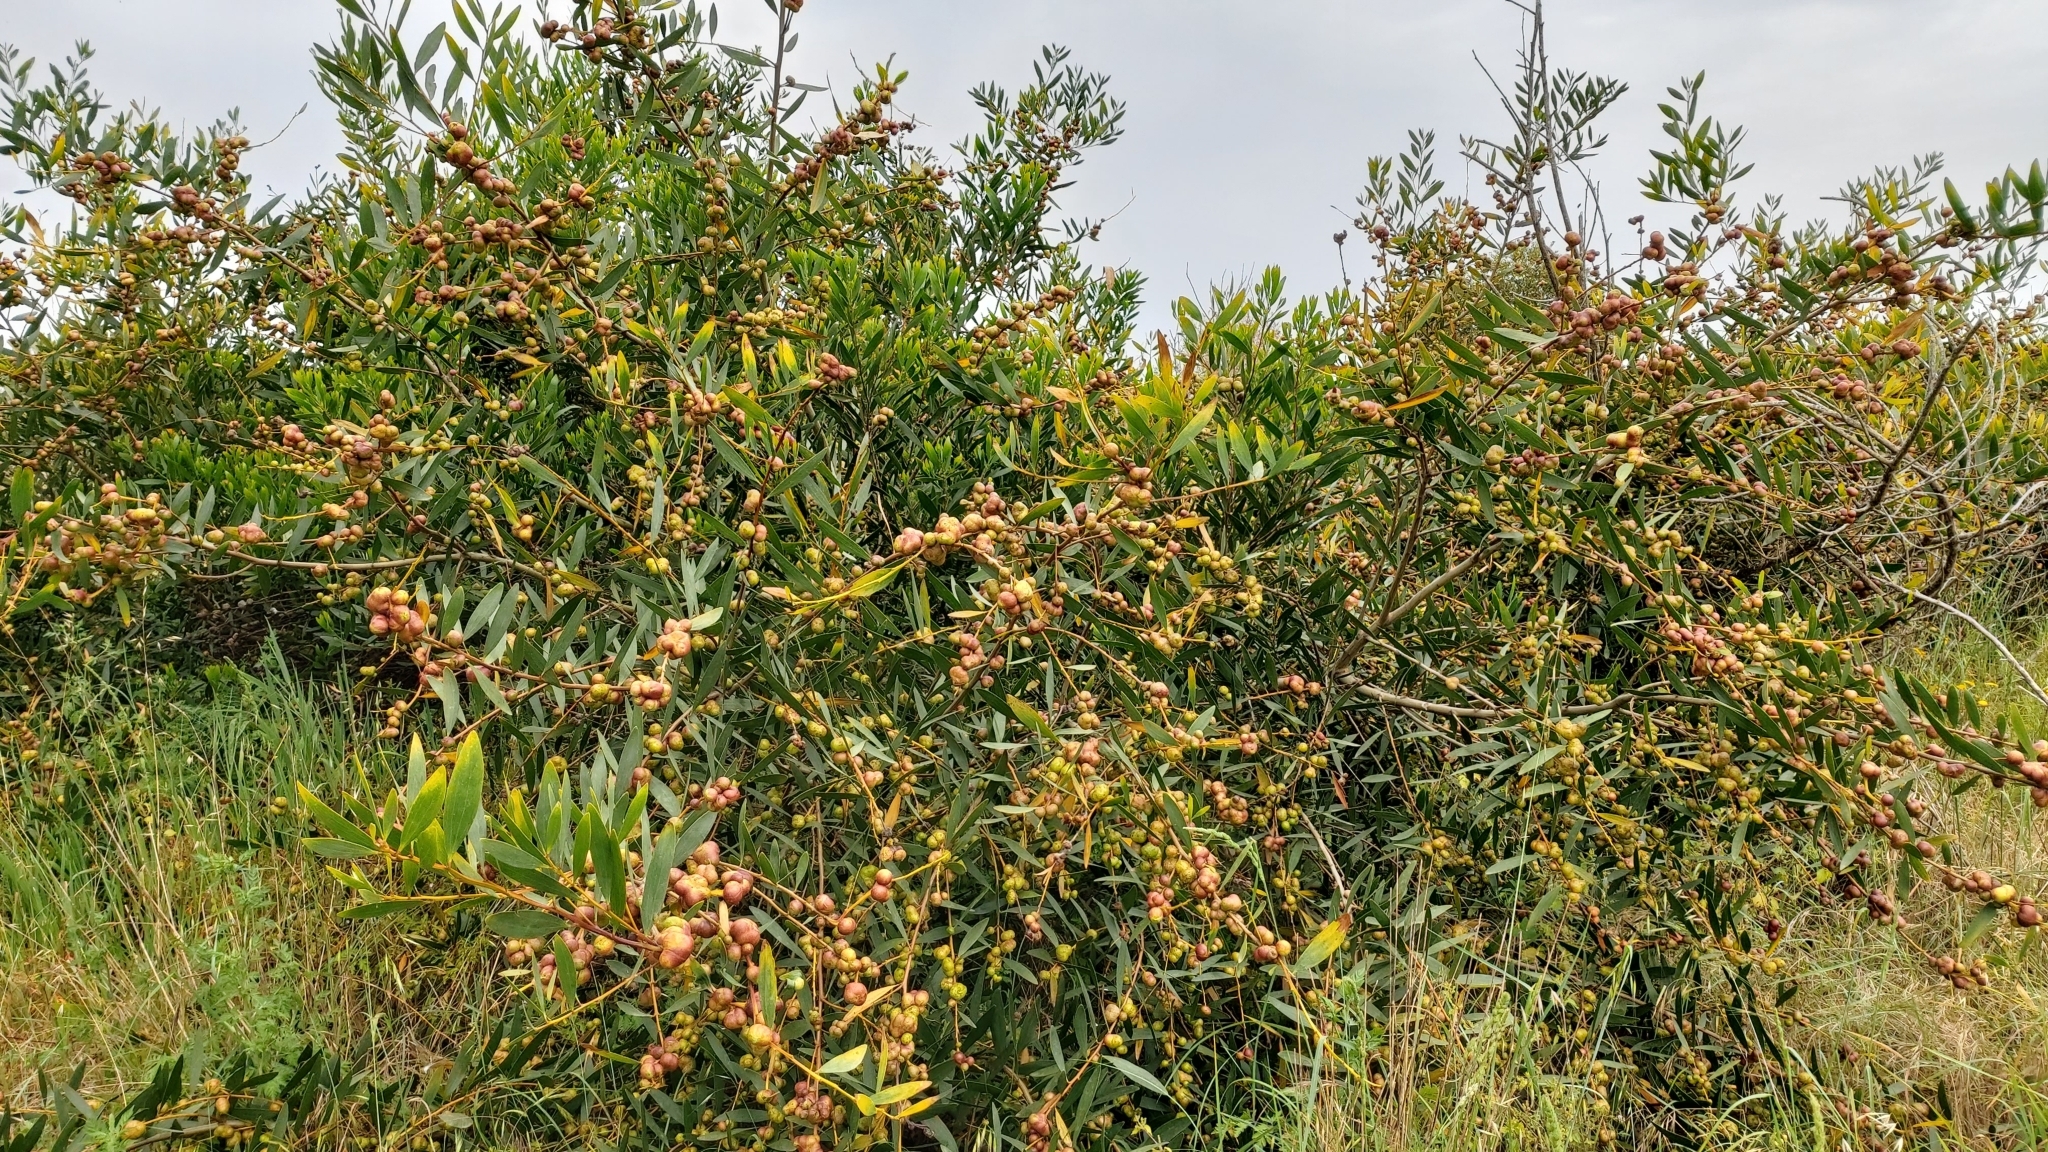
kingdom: Plantae
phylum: Tracheophyta
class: Magnoliopsida
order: Fabales
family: Fabaceae
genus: Acacia
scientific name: Acacia longifolia
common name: Sydney golden wattle
